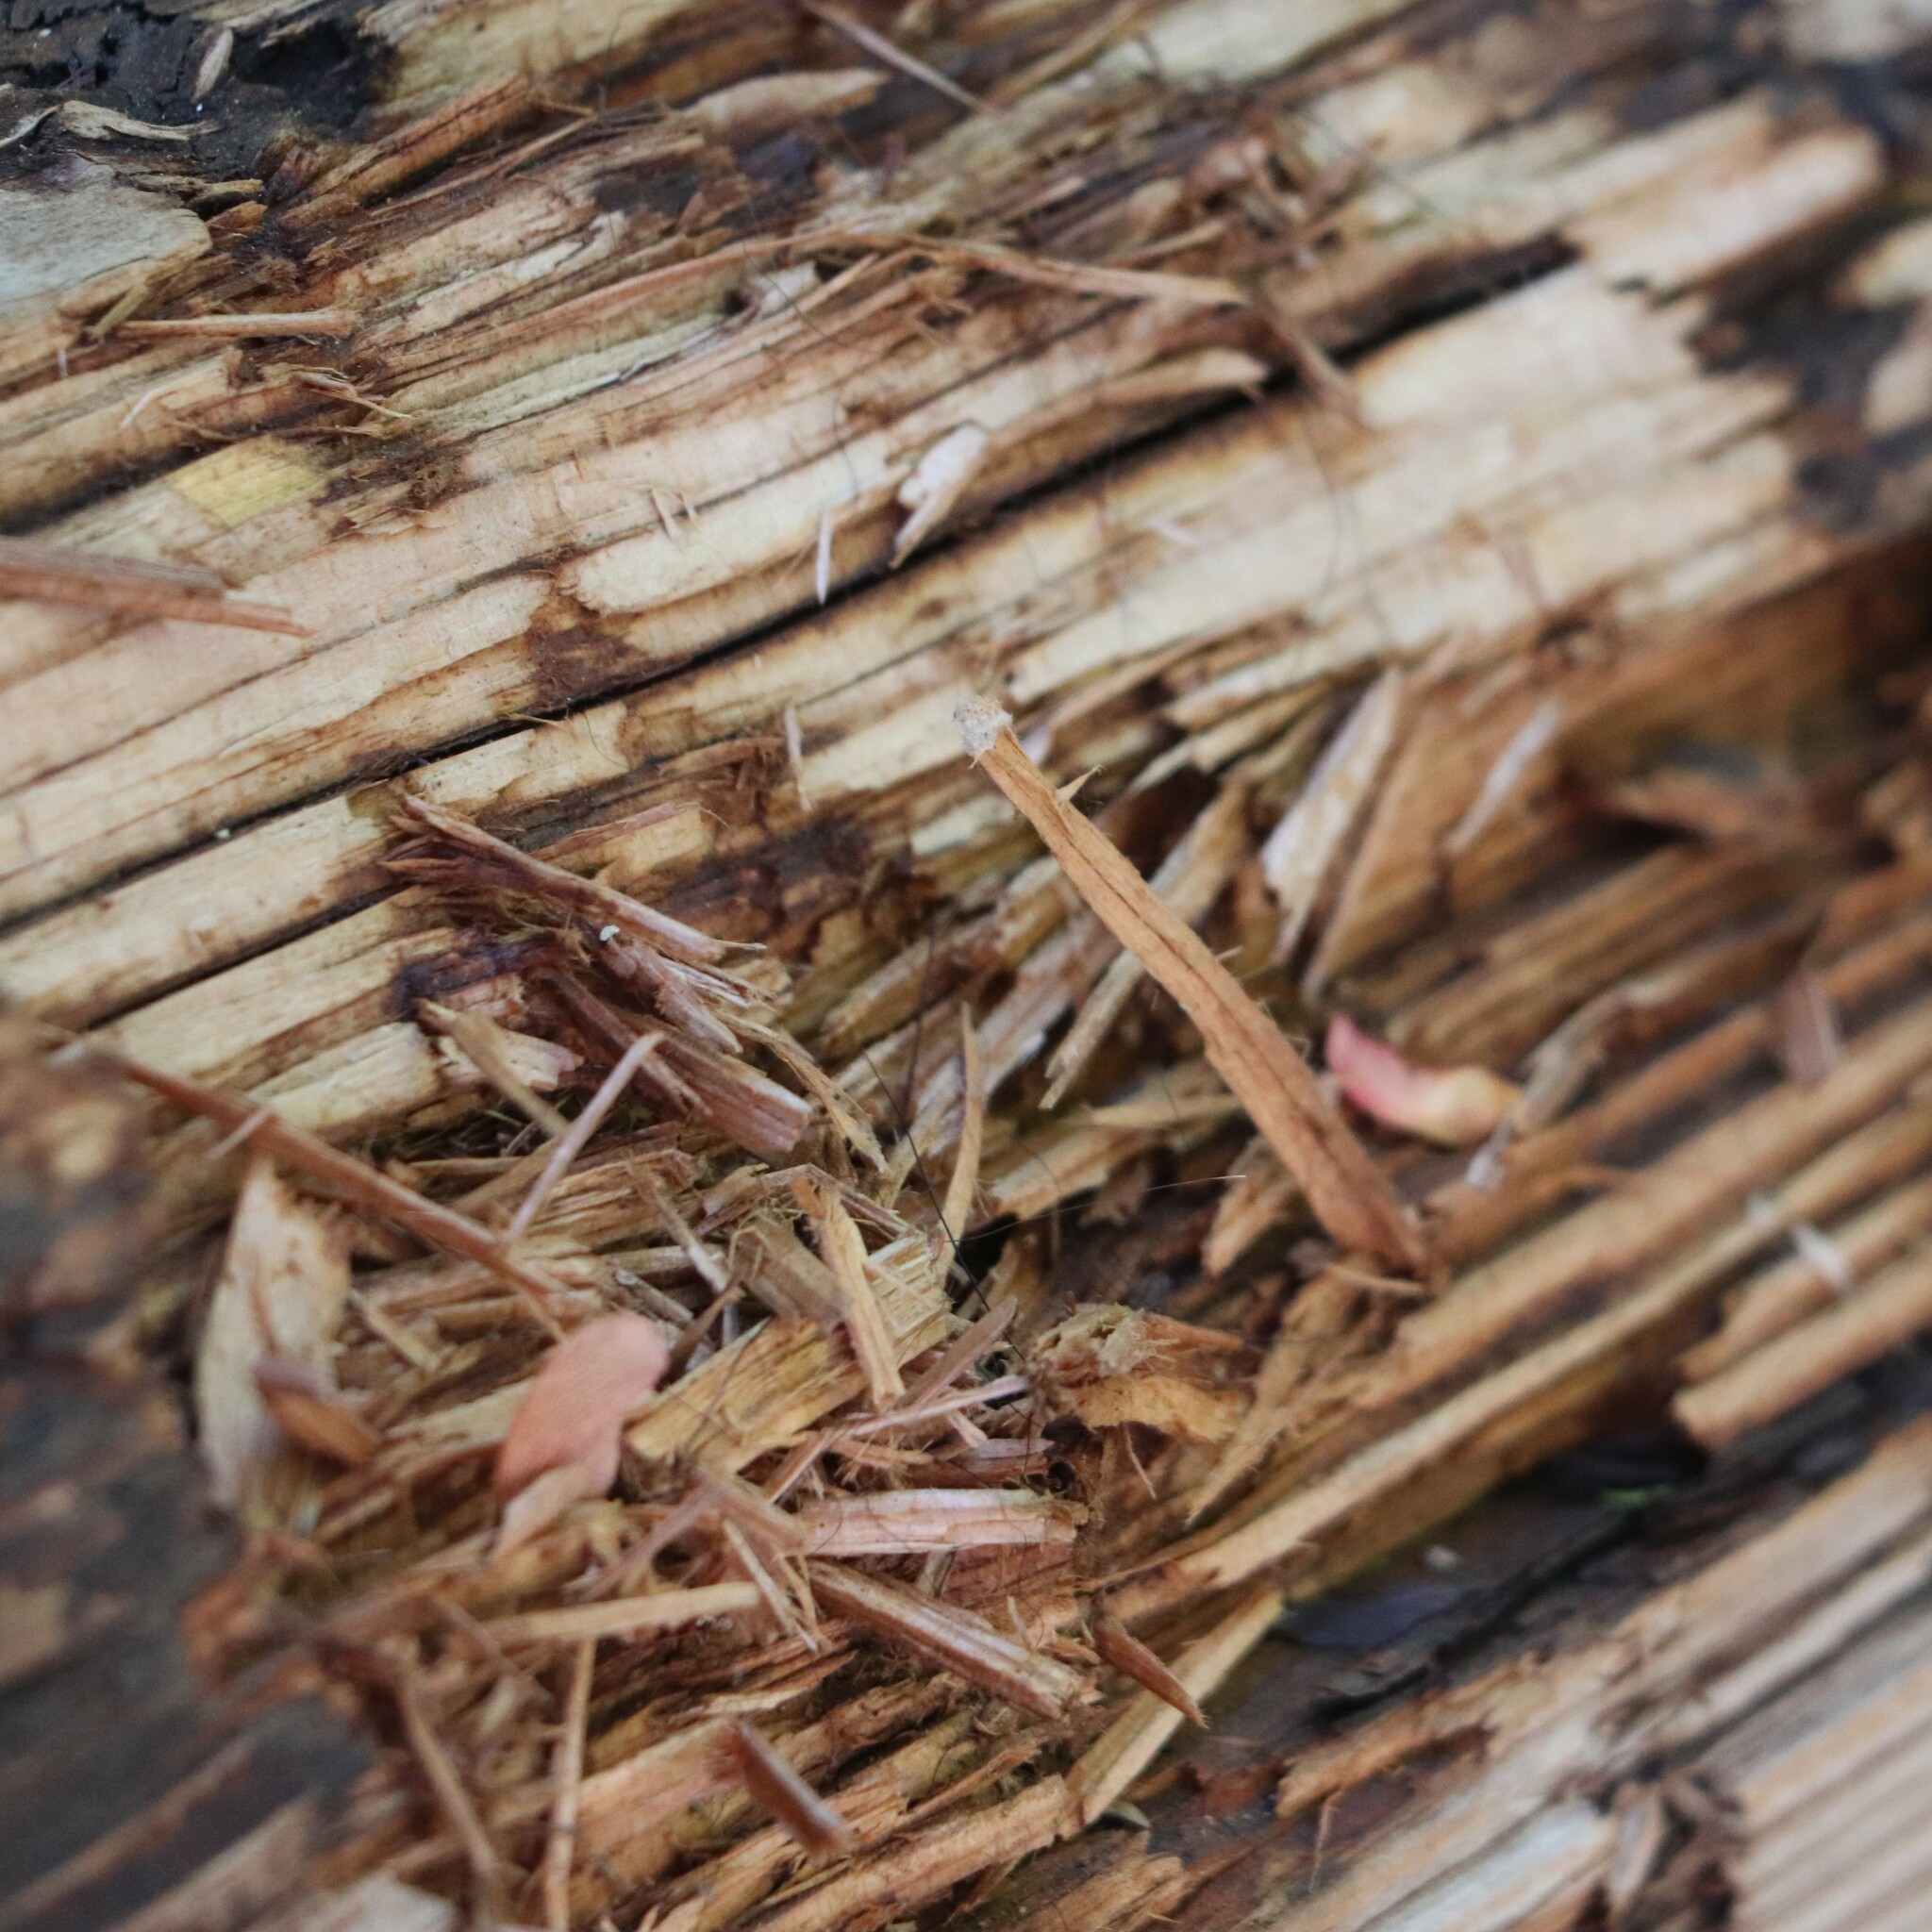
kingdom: Animalia
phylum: Chordata
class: Mammalia
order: Carnivora
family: Ursidae
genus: Ursus
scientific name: Ursus americanus
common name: American black bear
